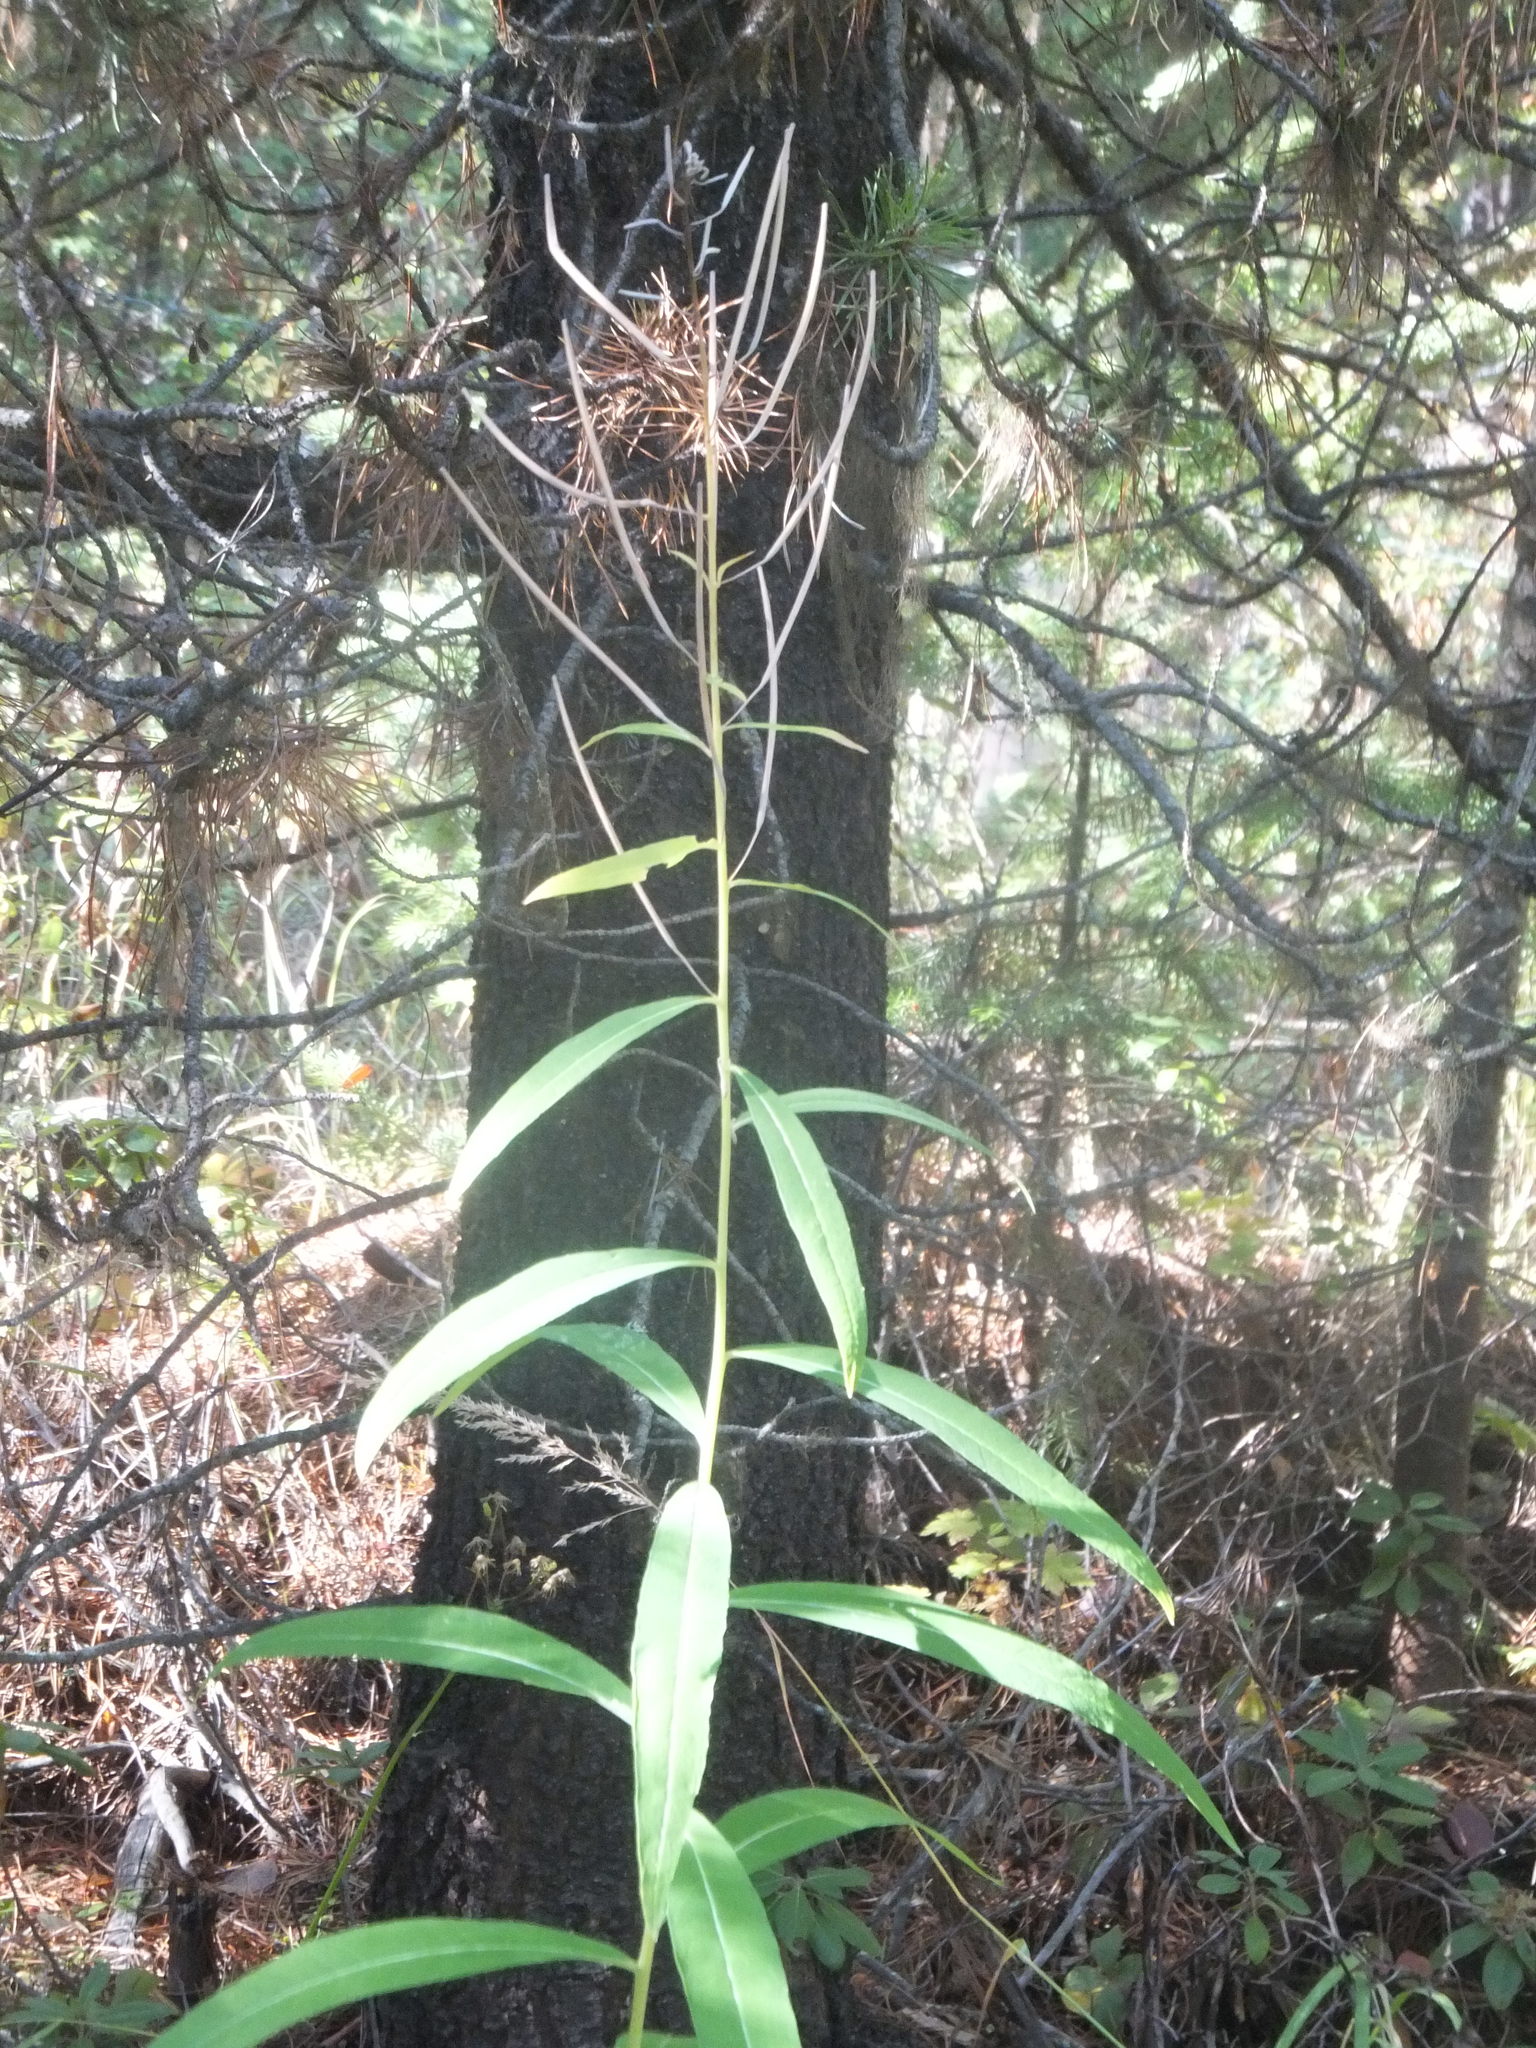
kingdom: Plantae
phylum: Tracheophyta
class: Magnoliopsida
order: Myrtales
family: Onagraceae
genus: Chamaenerion
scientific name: Chamaenerion angustifolium
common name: Fireweed
